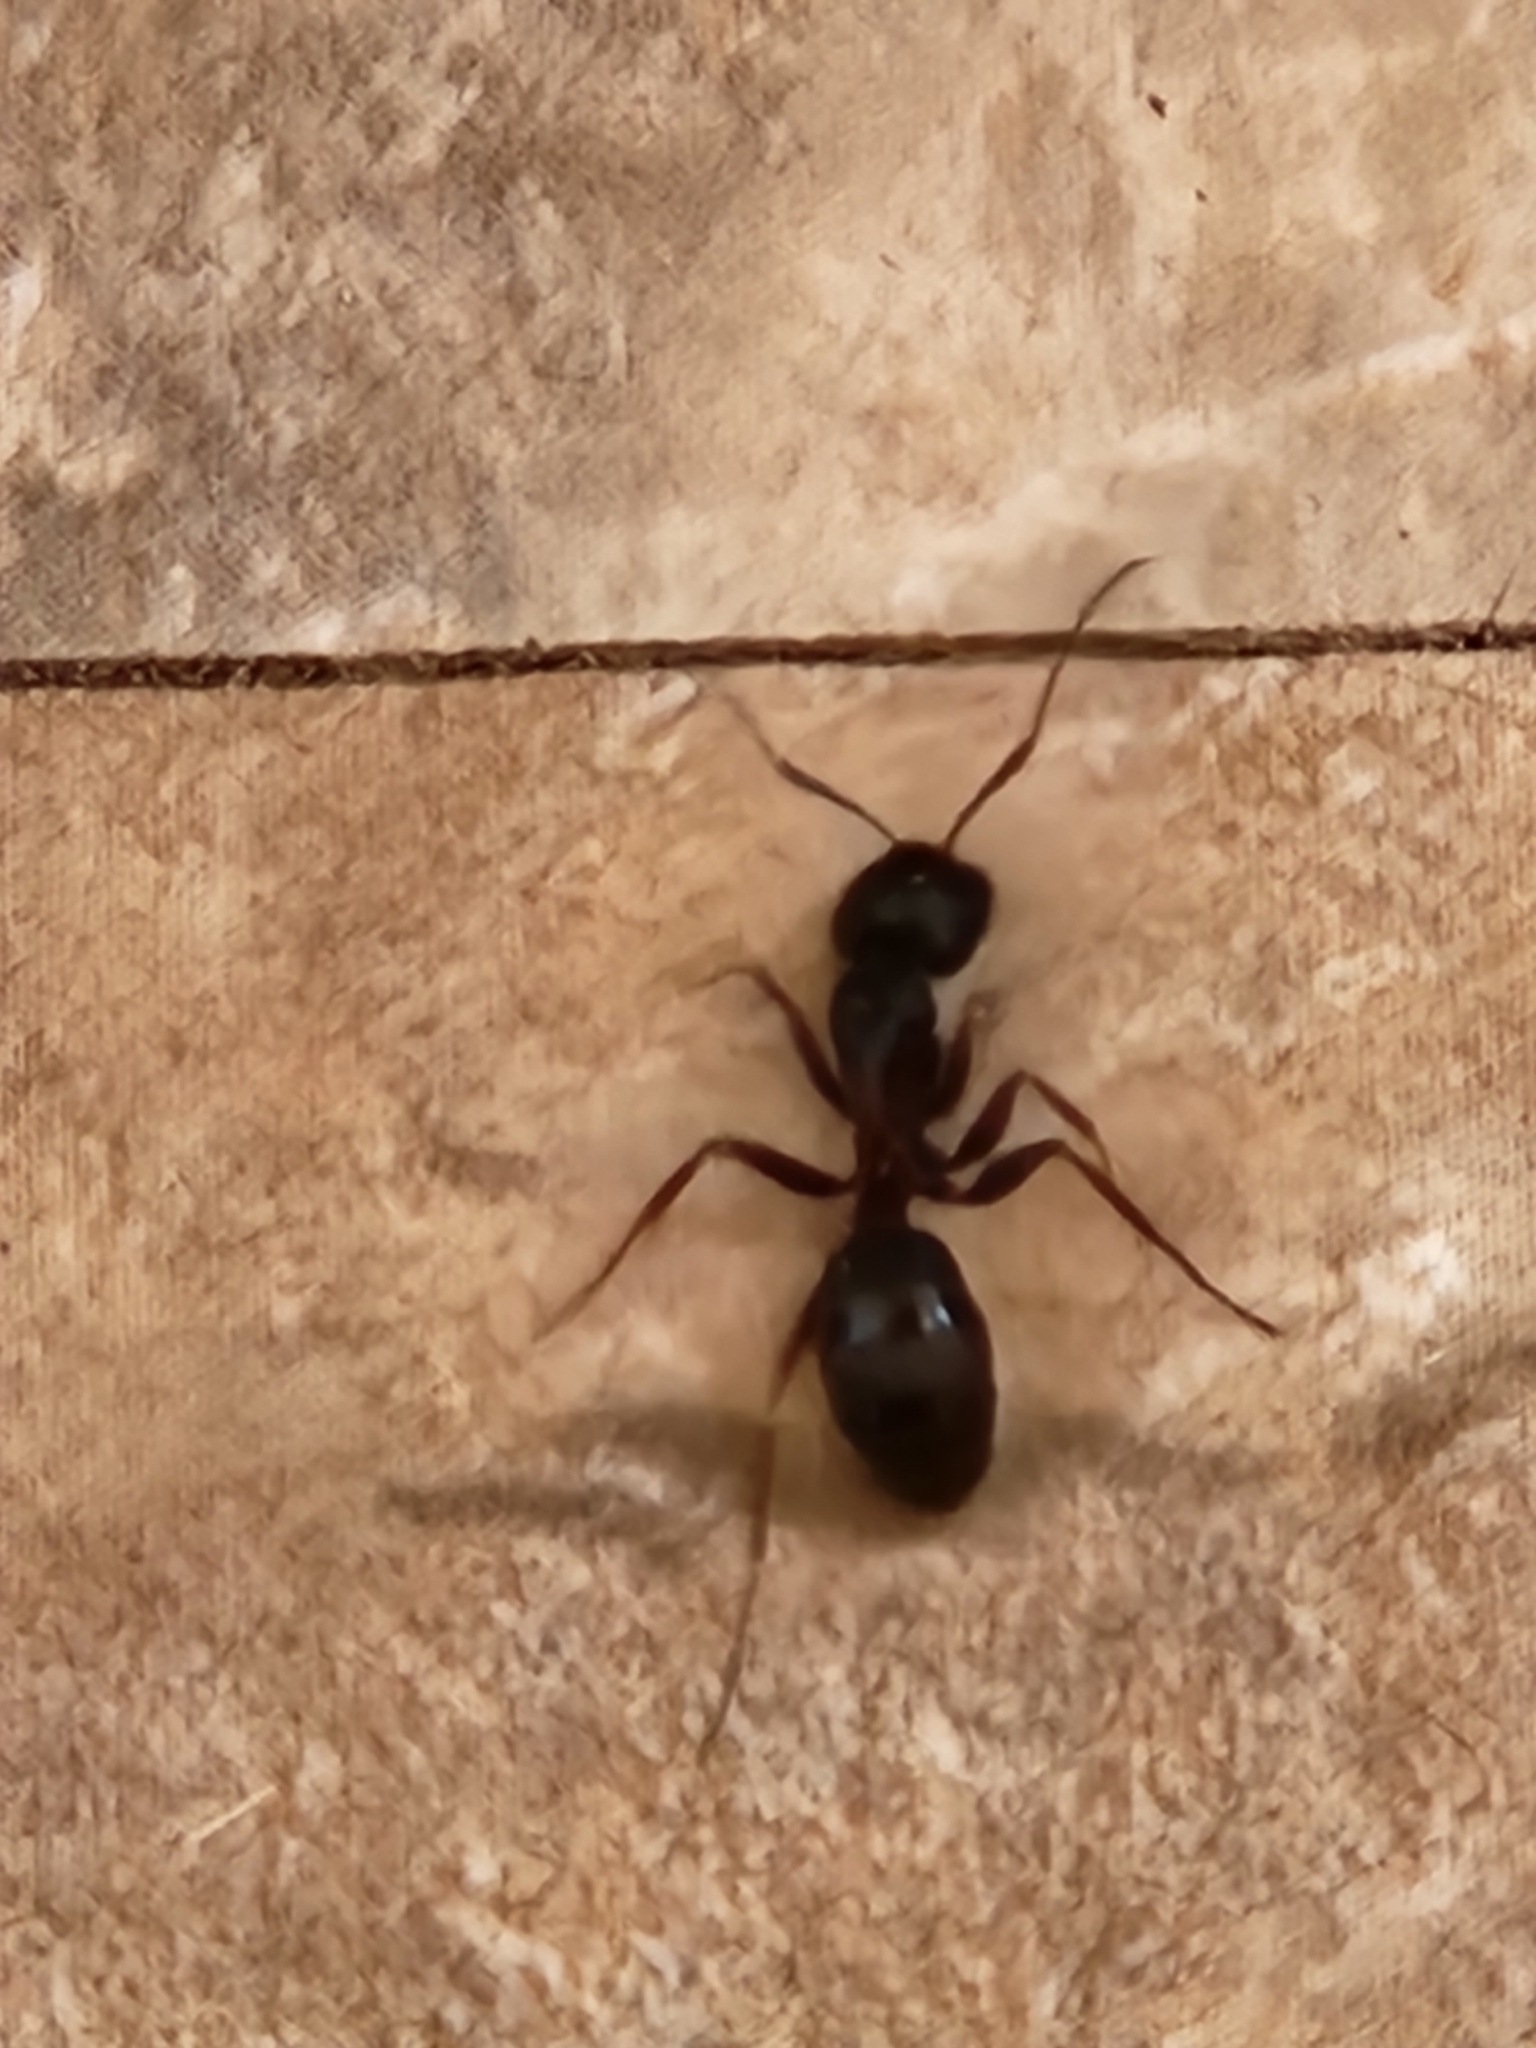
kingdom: Animalia
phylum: Arthropoda
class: Insecta
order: Hymenoptera
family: Formicidae
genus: Camponotus
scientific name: Camponotus herculeanus
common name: Hercules ant
